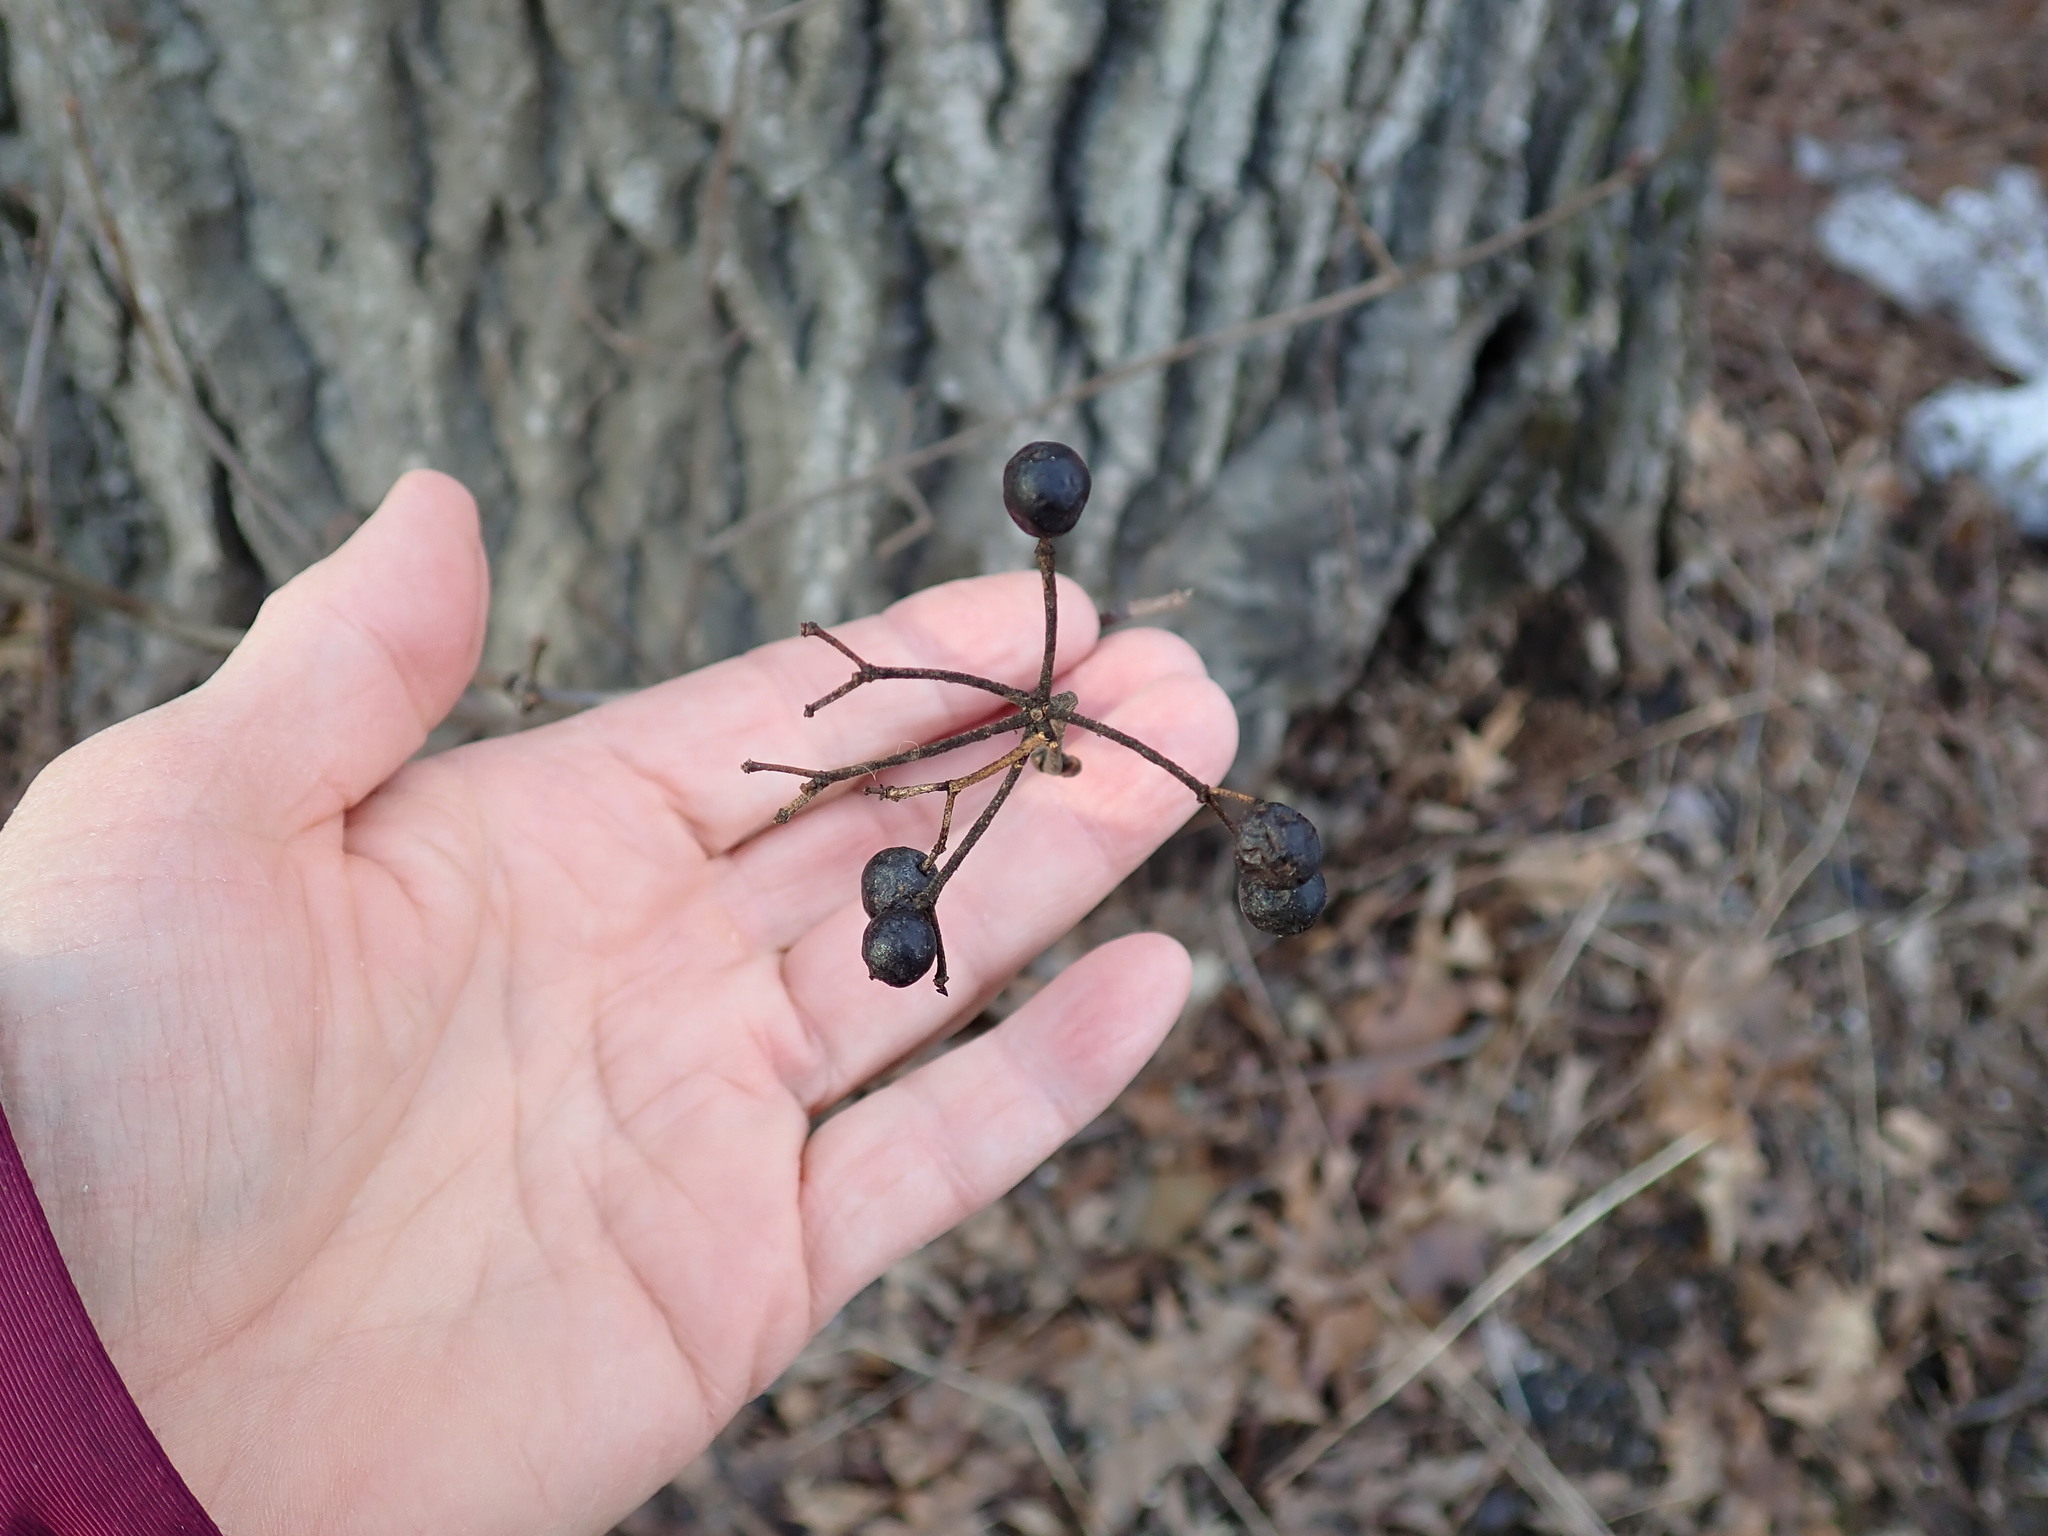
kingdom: Plantae
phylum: Tracheophyta
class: Magnoliopsida
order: Dipsacales
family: Viburnaceae
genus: Viburnum
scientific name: Viburnum acerifolium
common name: Dockmackie
